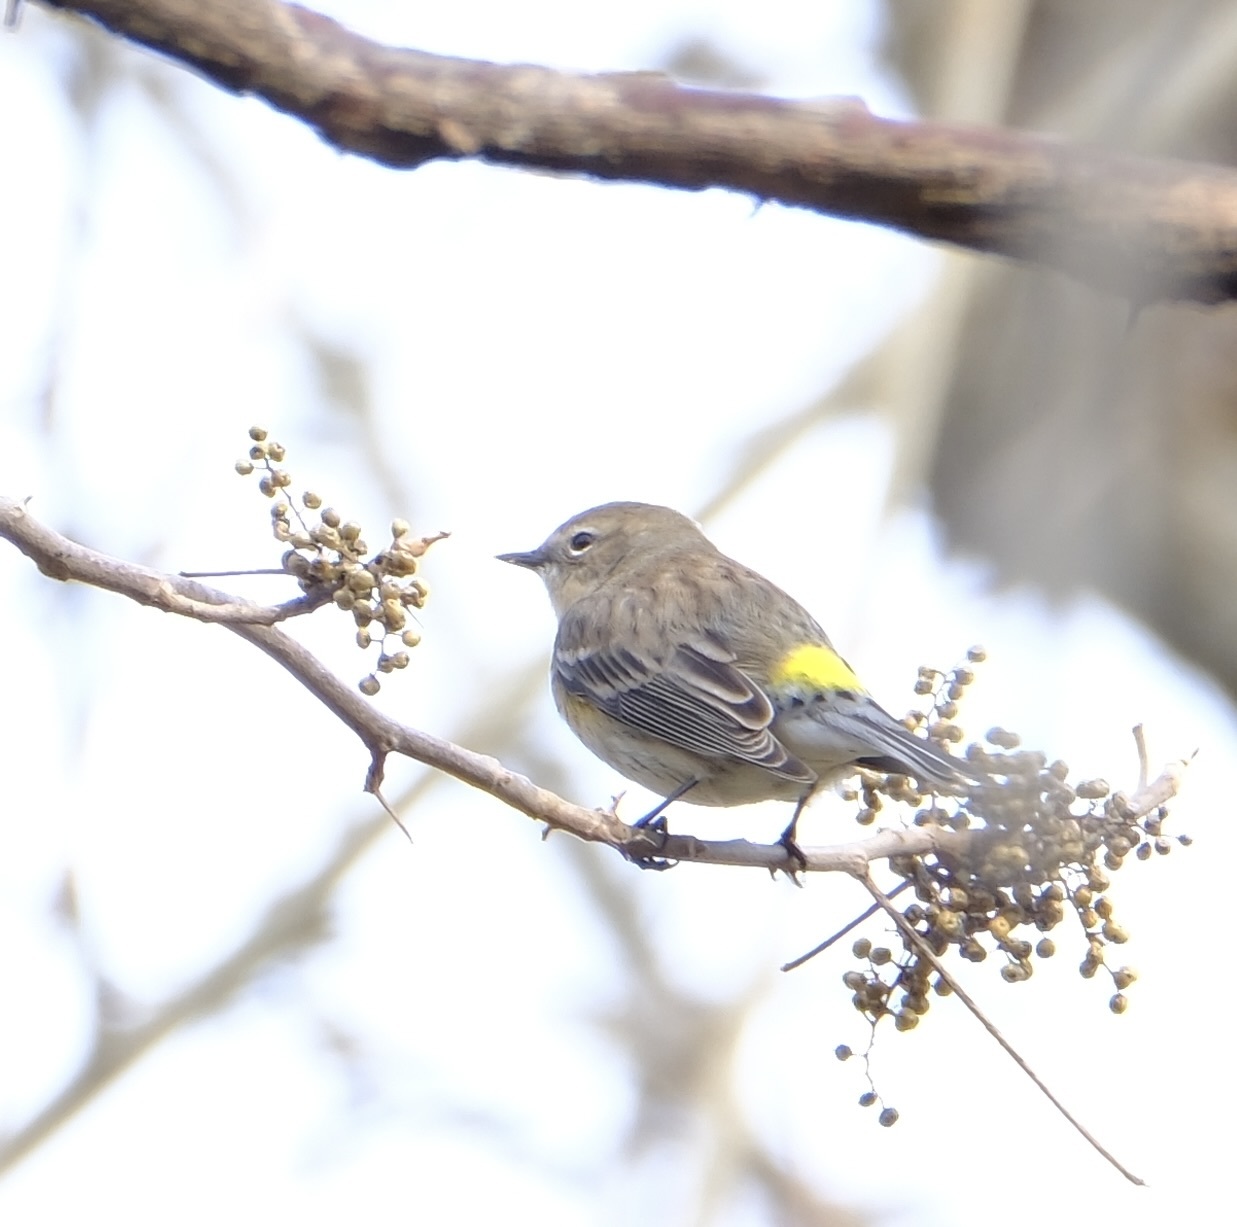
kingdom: Animalia
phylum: Chordata
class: Aves
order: Passeriformes
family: Parulidae
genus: Setophaga
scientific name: Setophaga coronata
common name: Myrtle warbler
